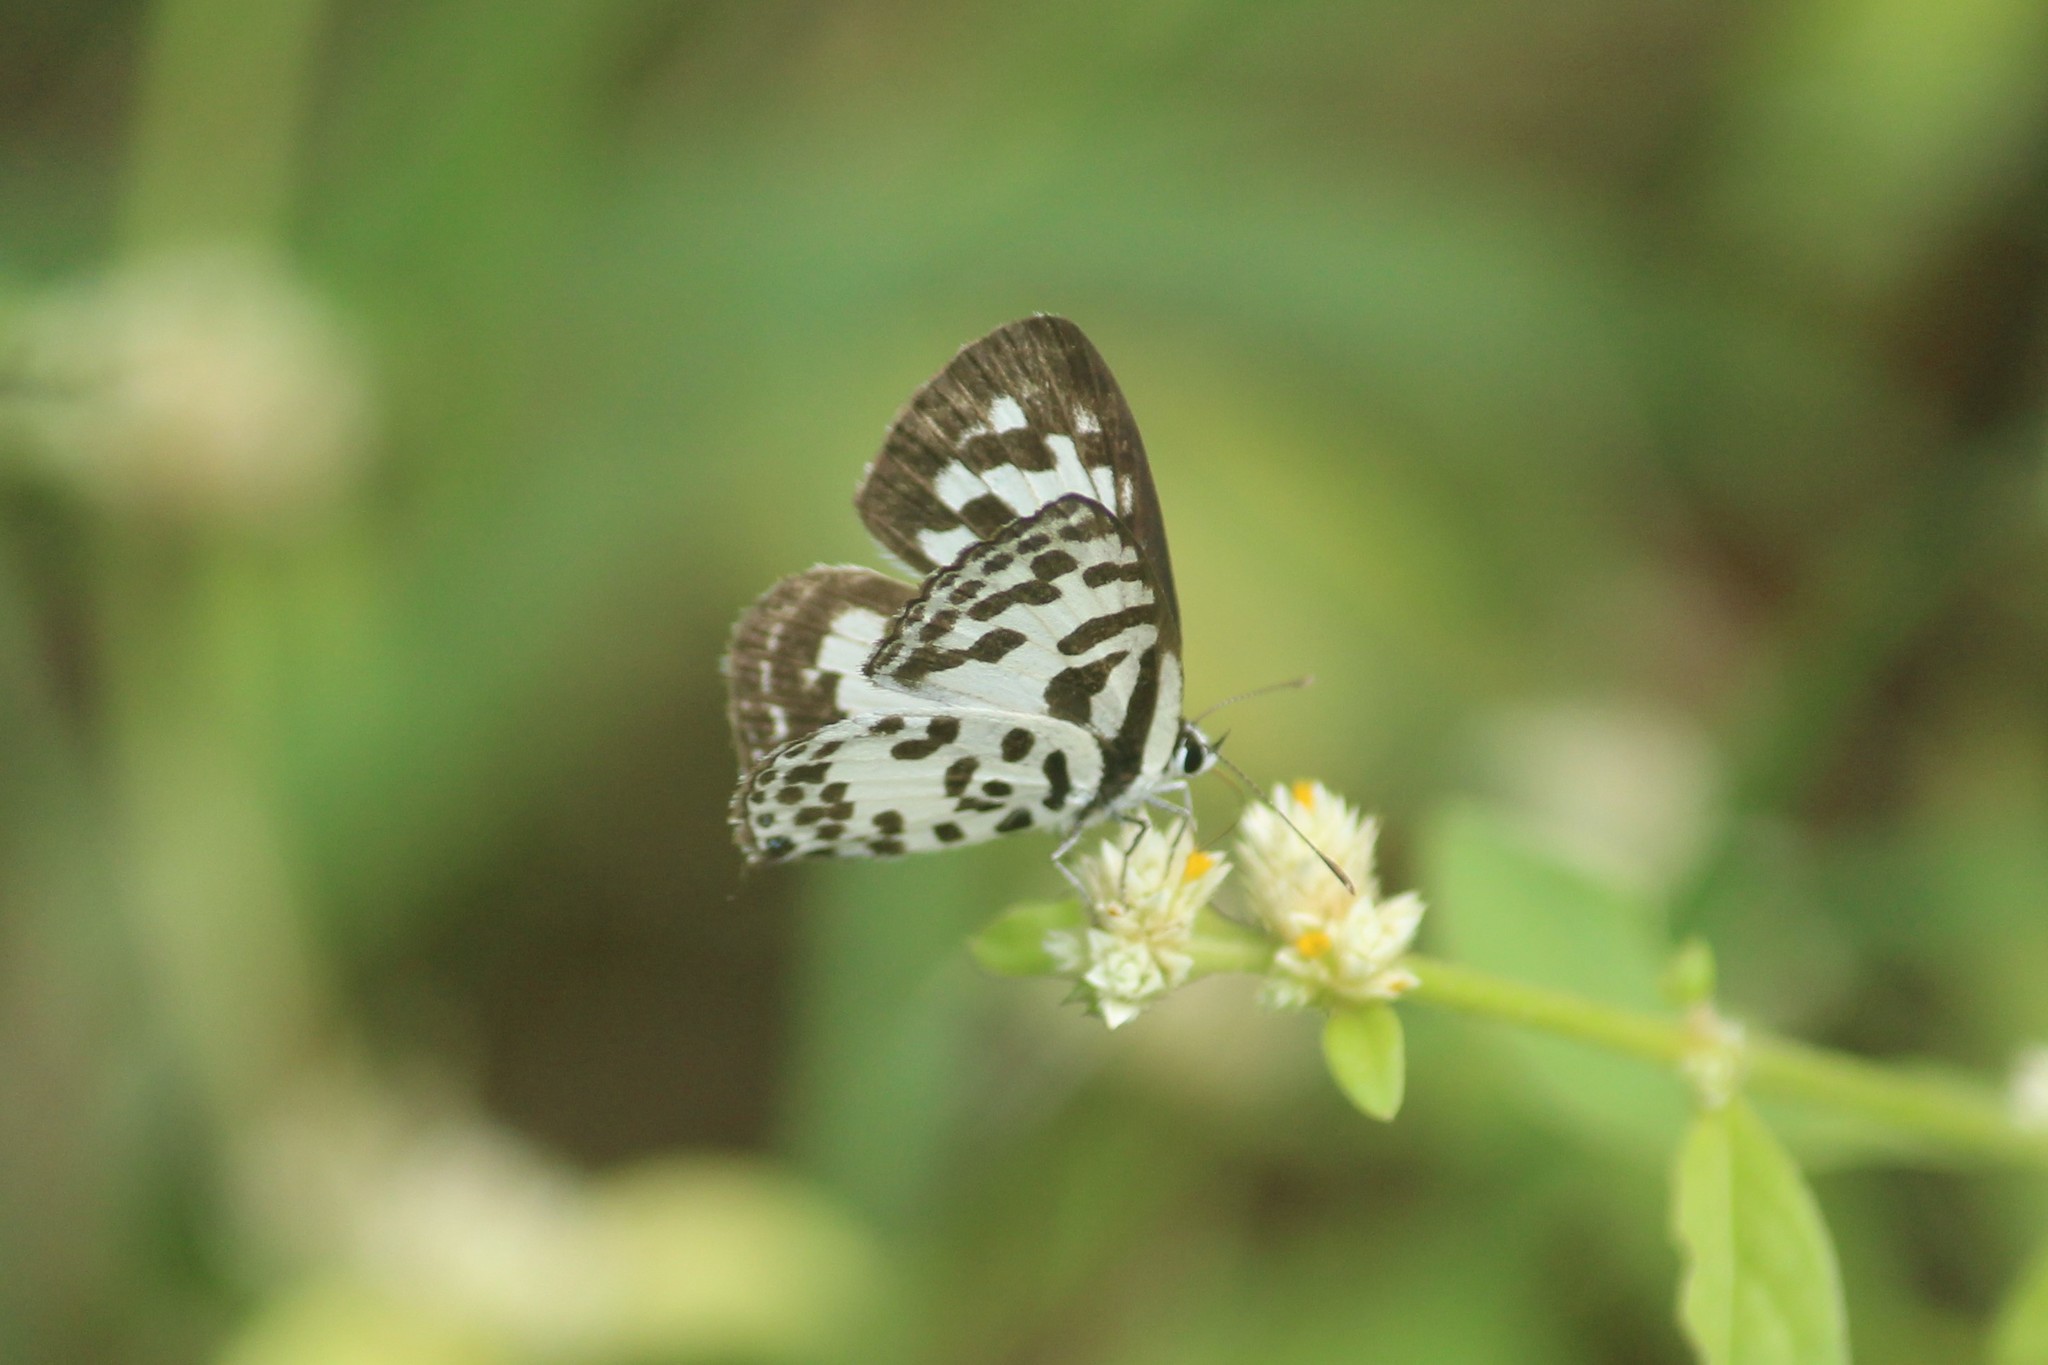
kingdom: Animalia
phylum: Arthropoda
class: Insecta
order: Lepidoptera
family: Lycaenidae
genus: Castalius
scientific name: Castalius rosimon
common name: Common pierrot
